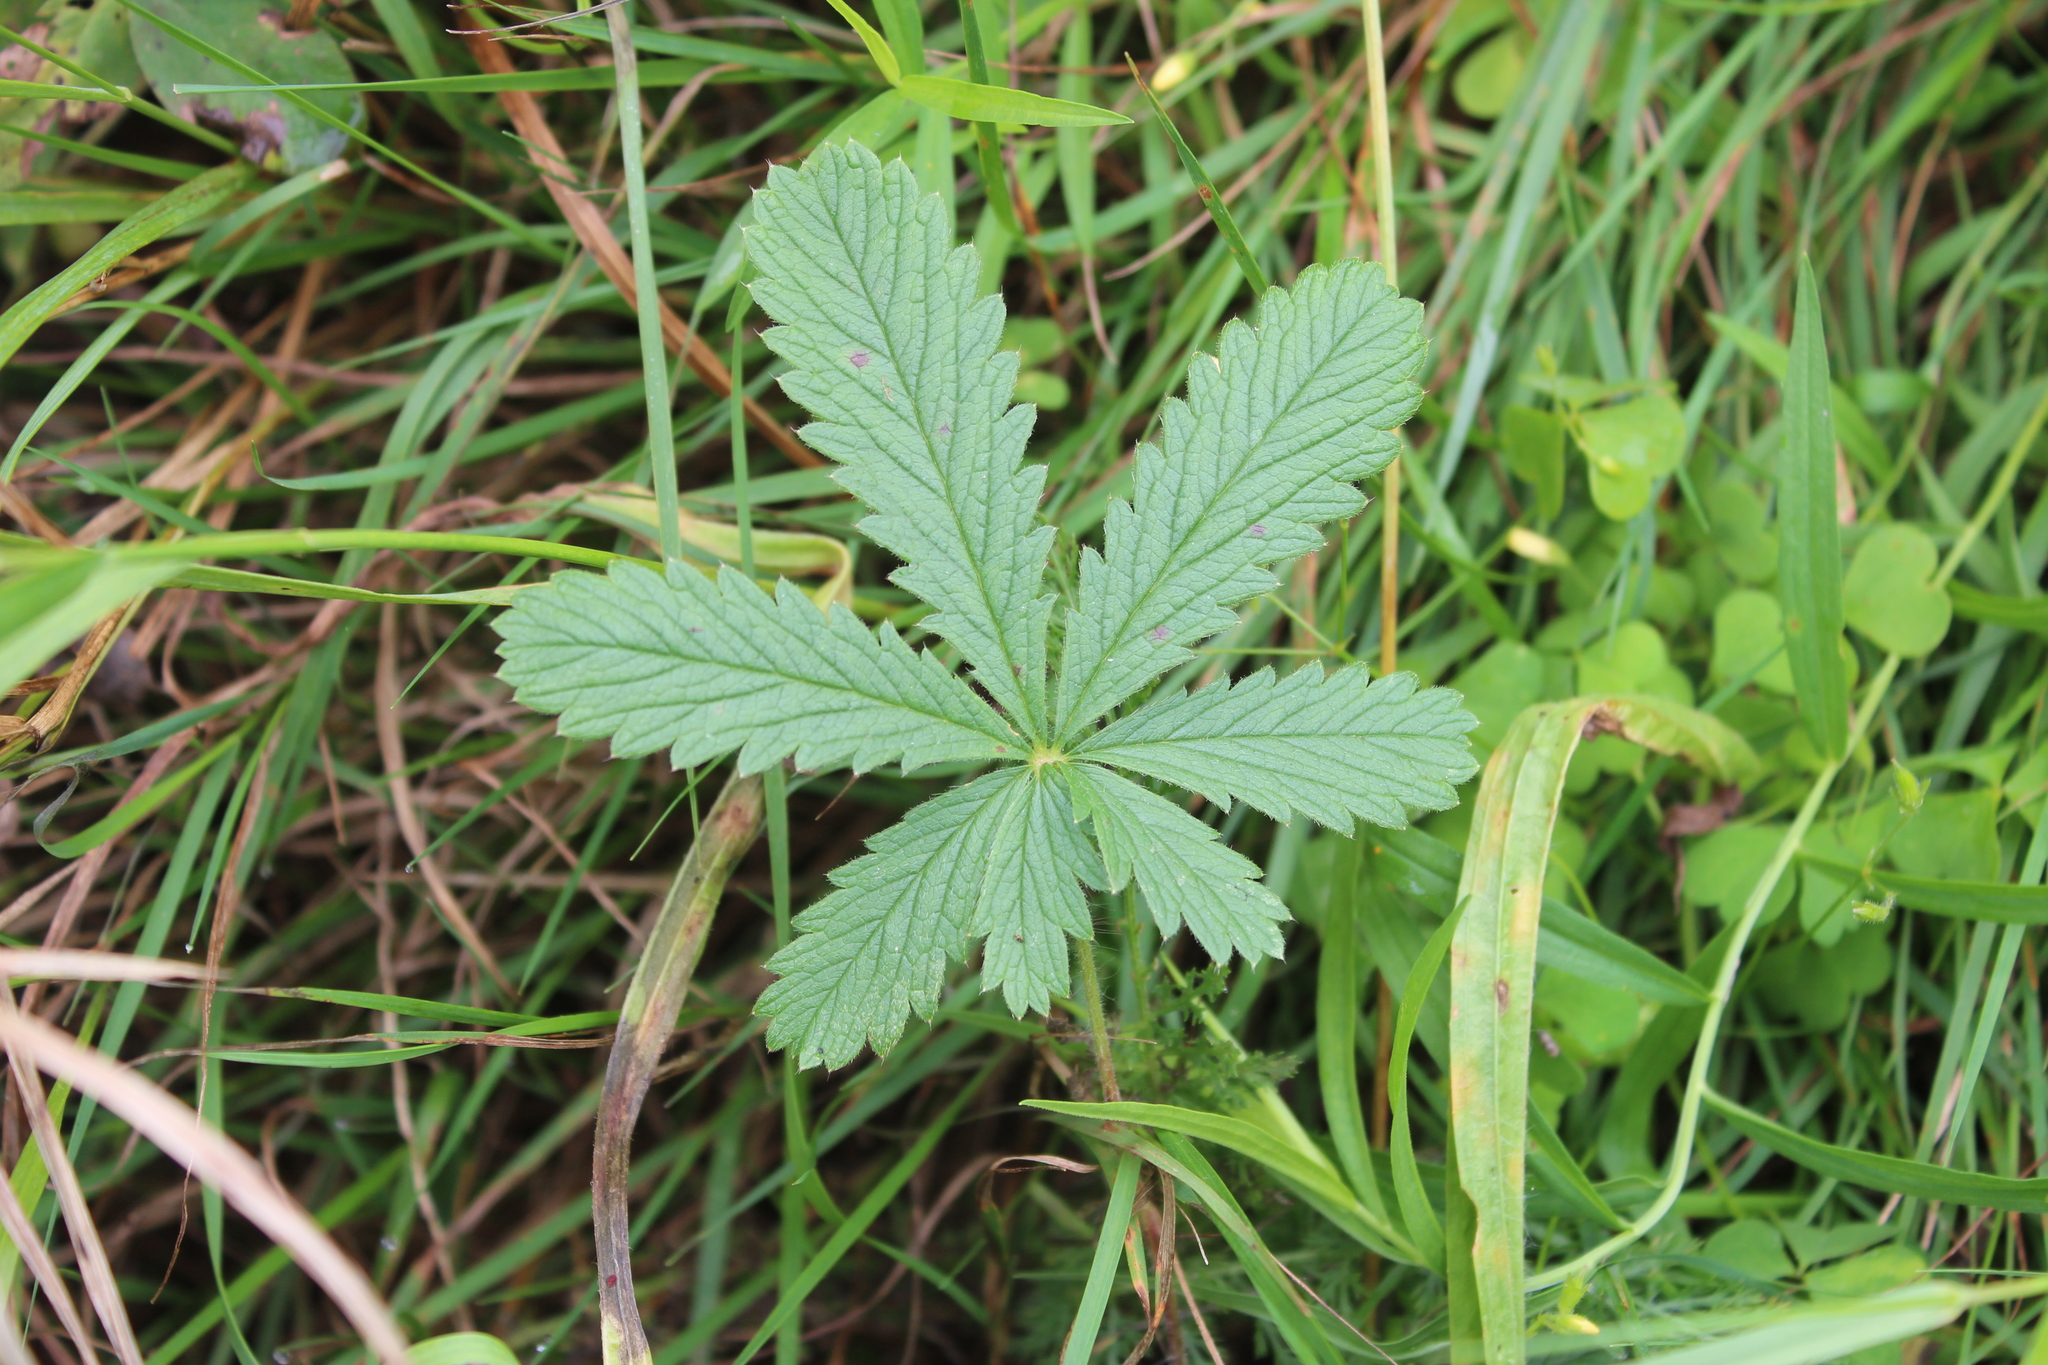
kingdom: Plantae
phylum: Tracheophyta
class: Magnoliopsida
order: Rosales
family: Rosaceae
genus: Potentilla
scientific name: Potentilla recta
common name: Sulphur cinquefoil
